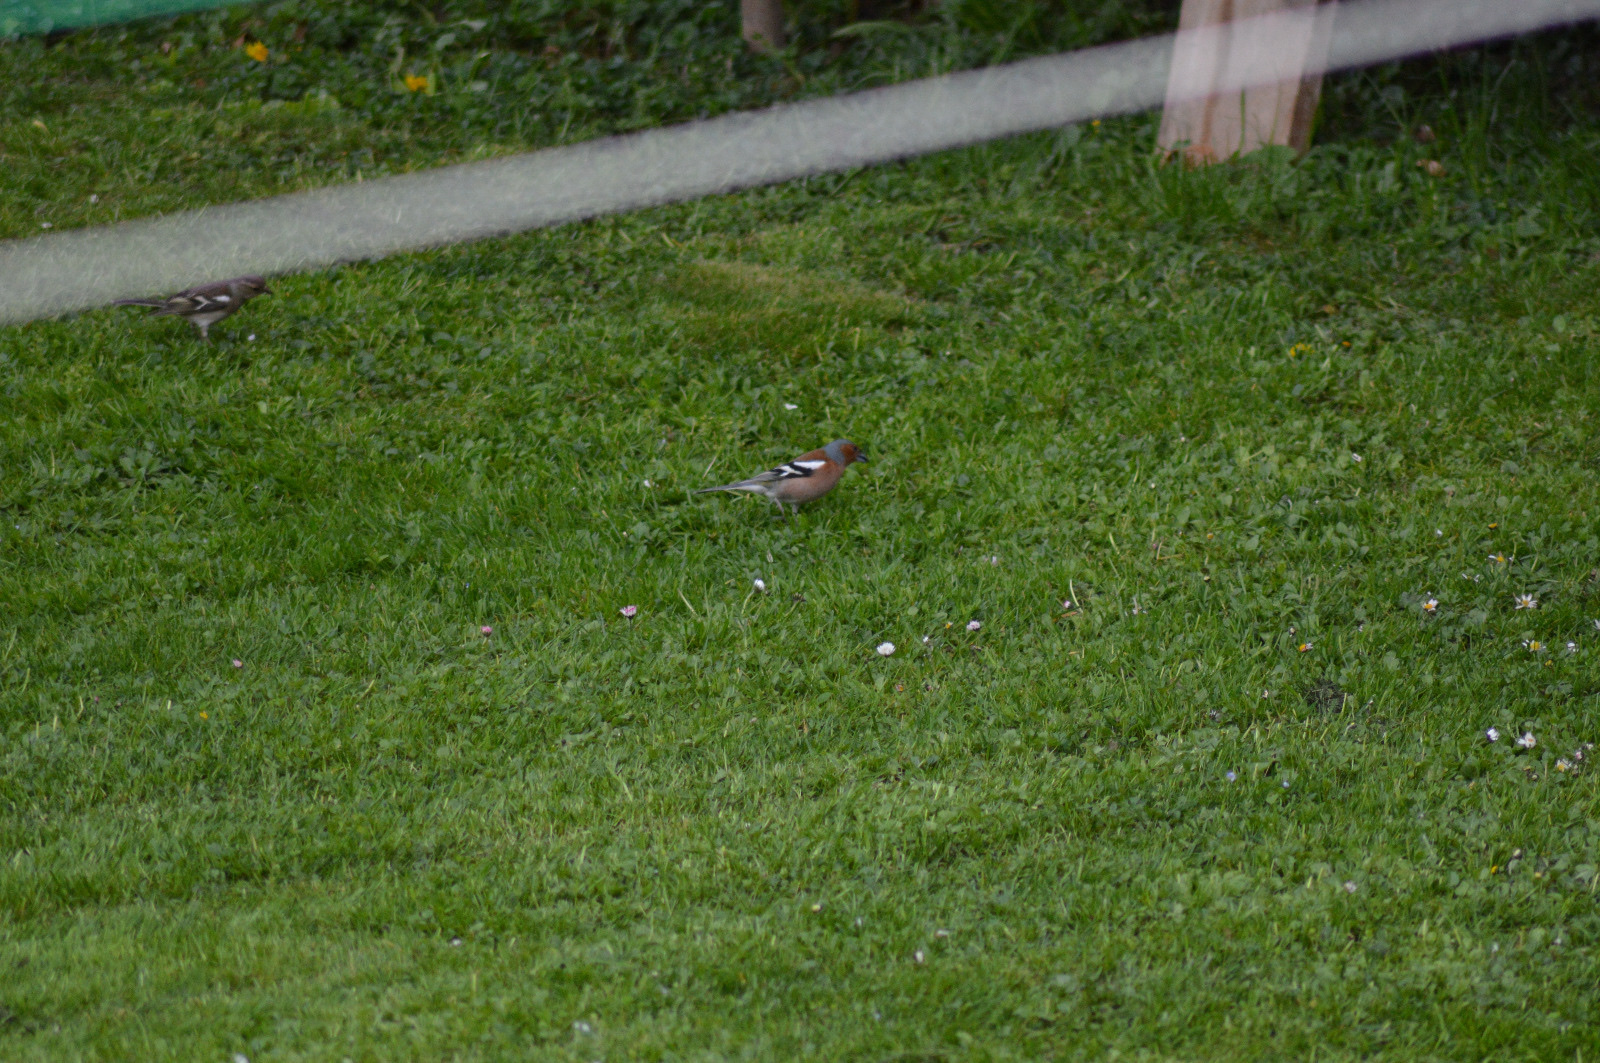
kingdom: Animalia
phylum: Chordata
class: Aves
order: Passeriformes
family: Fringillidae
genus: Fringilla
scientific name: Fringilla coelebs
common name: Common chaffinch
